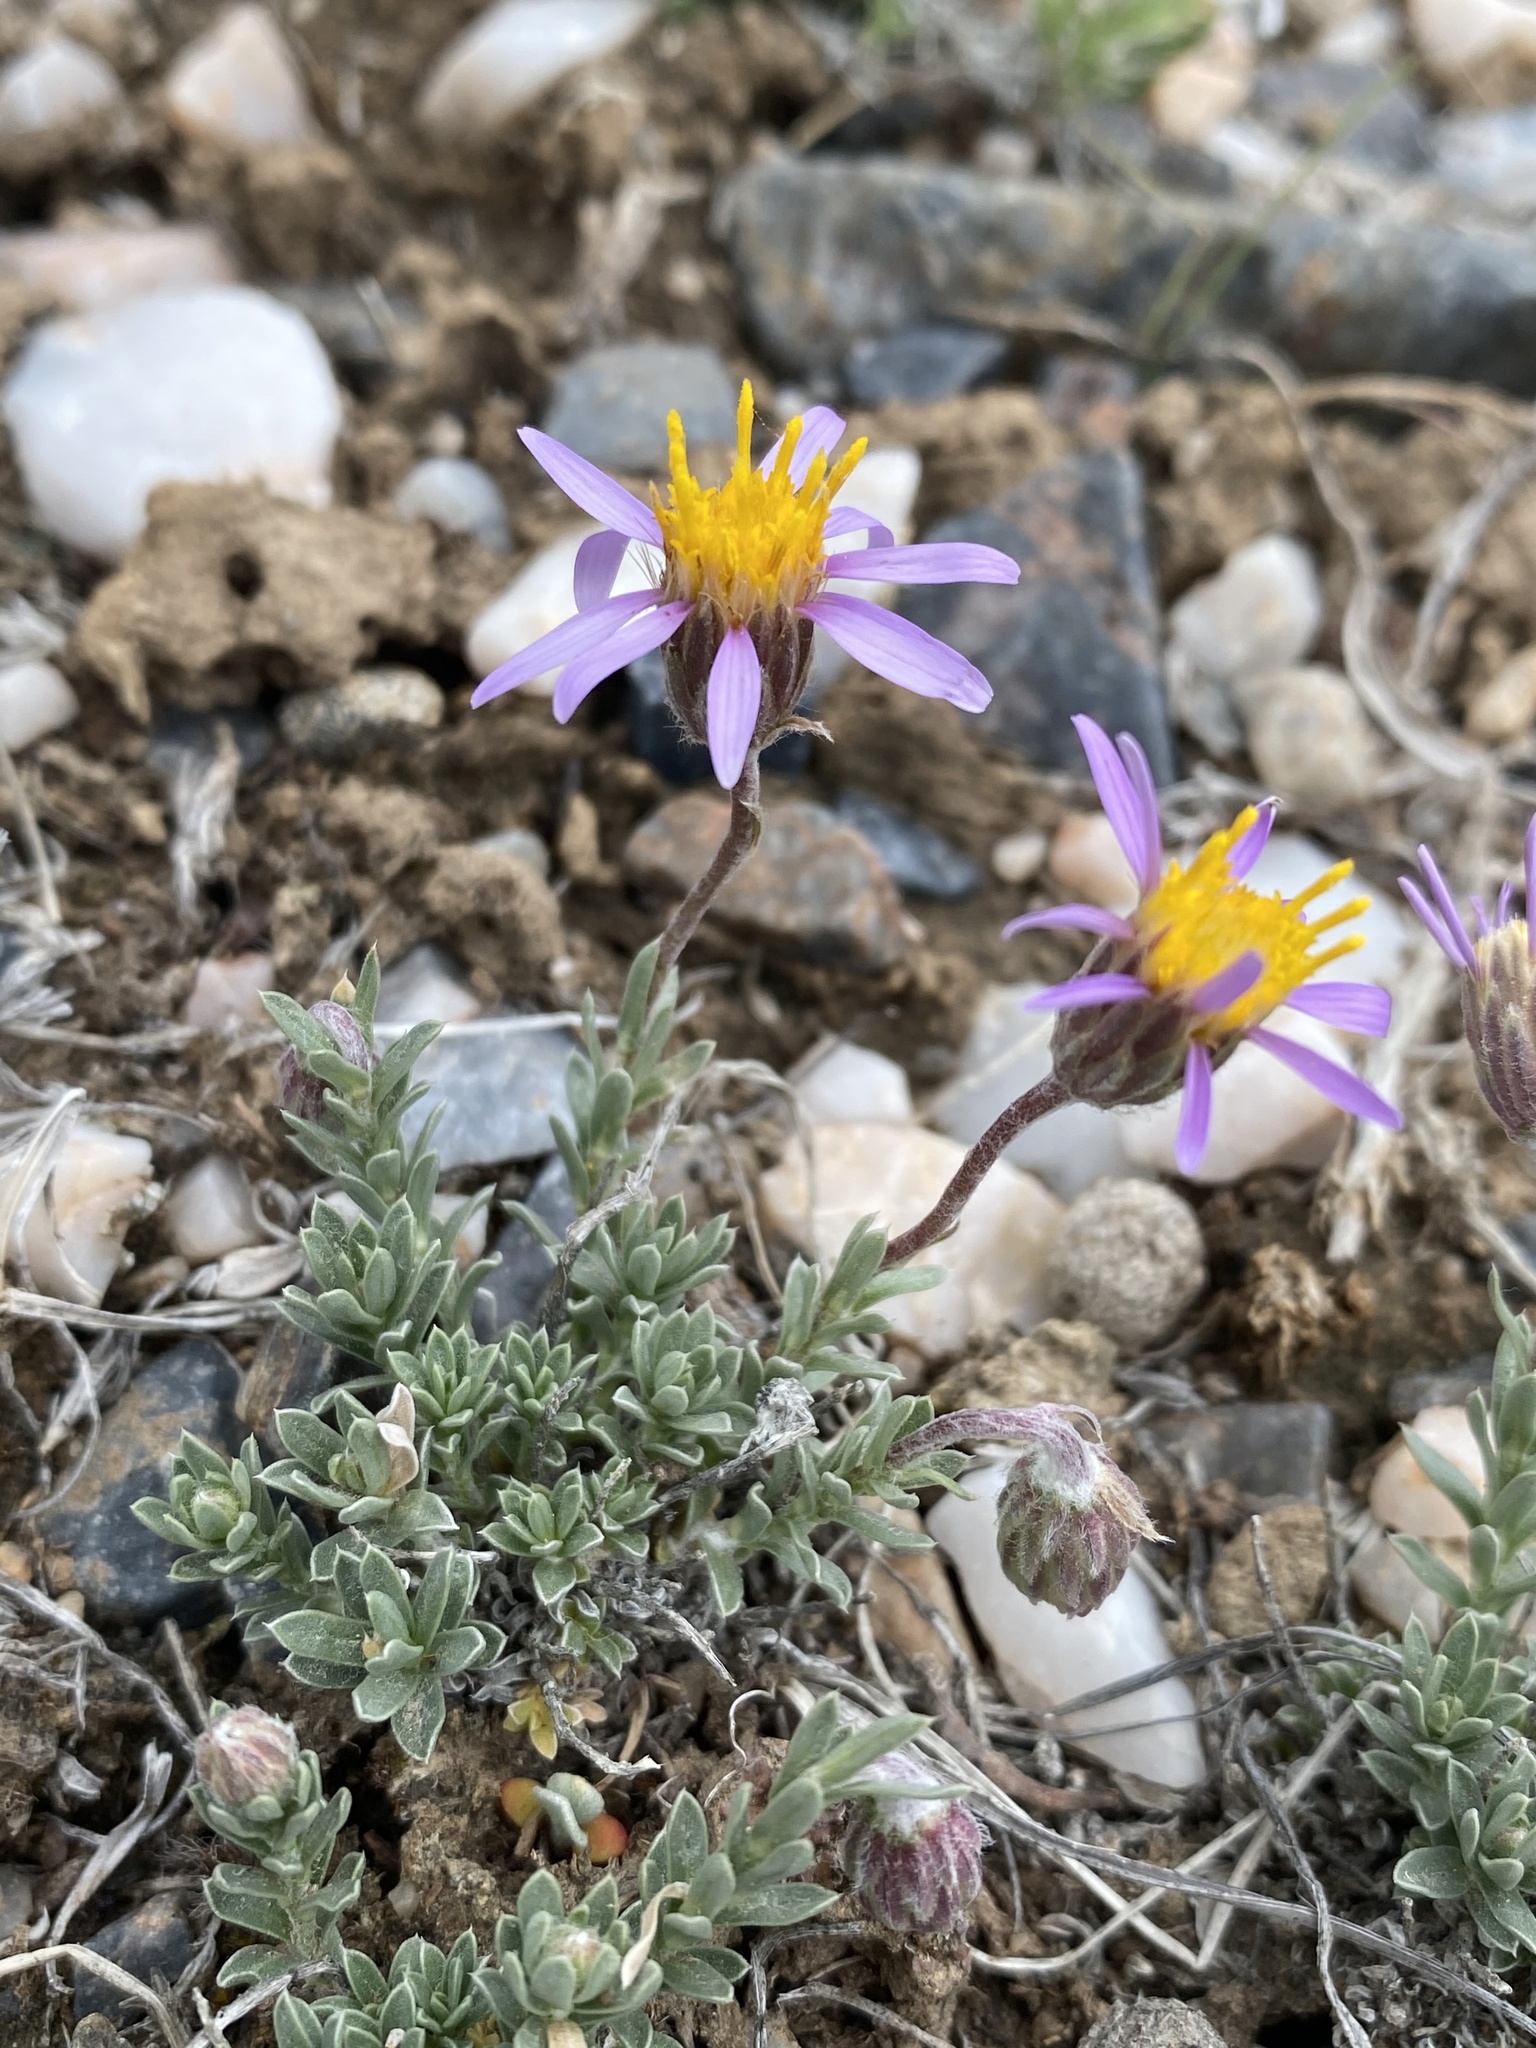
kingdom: Plantae
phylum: Tracheophyta
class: Magnoliopsida
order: Asterales
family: Asteraceae
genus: Ionactis
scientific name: Ionactis alpina
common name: Crag aster
